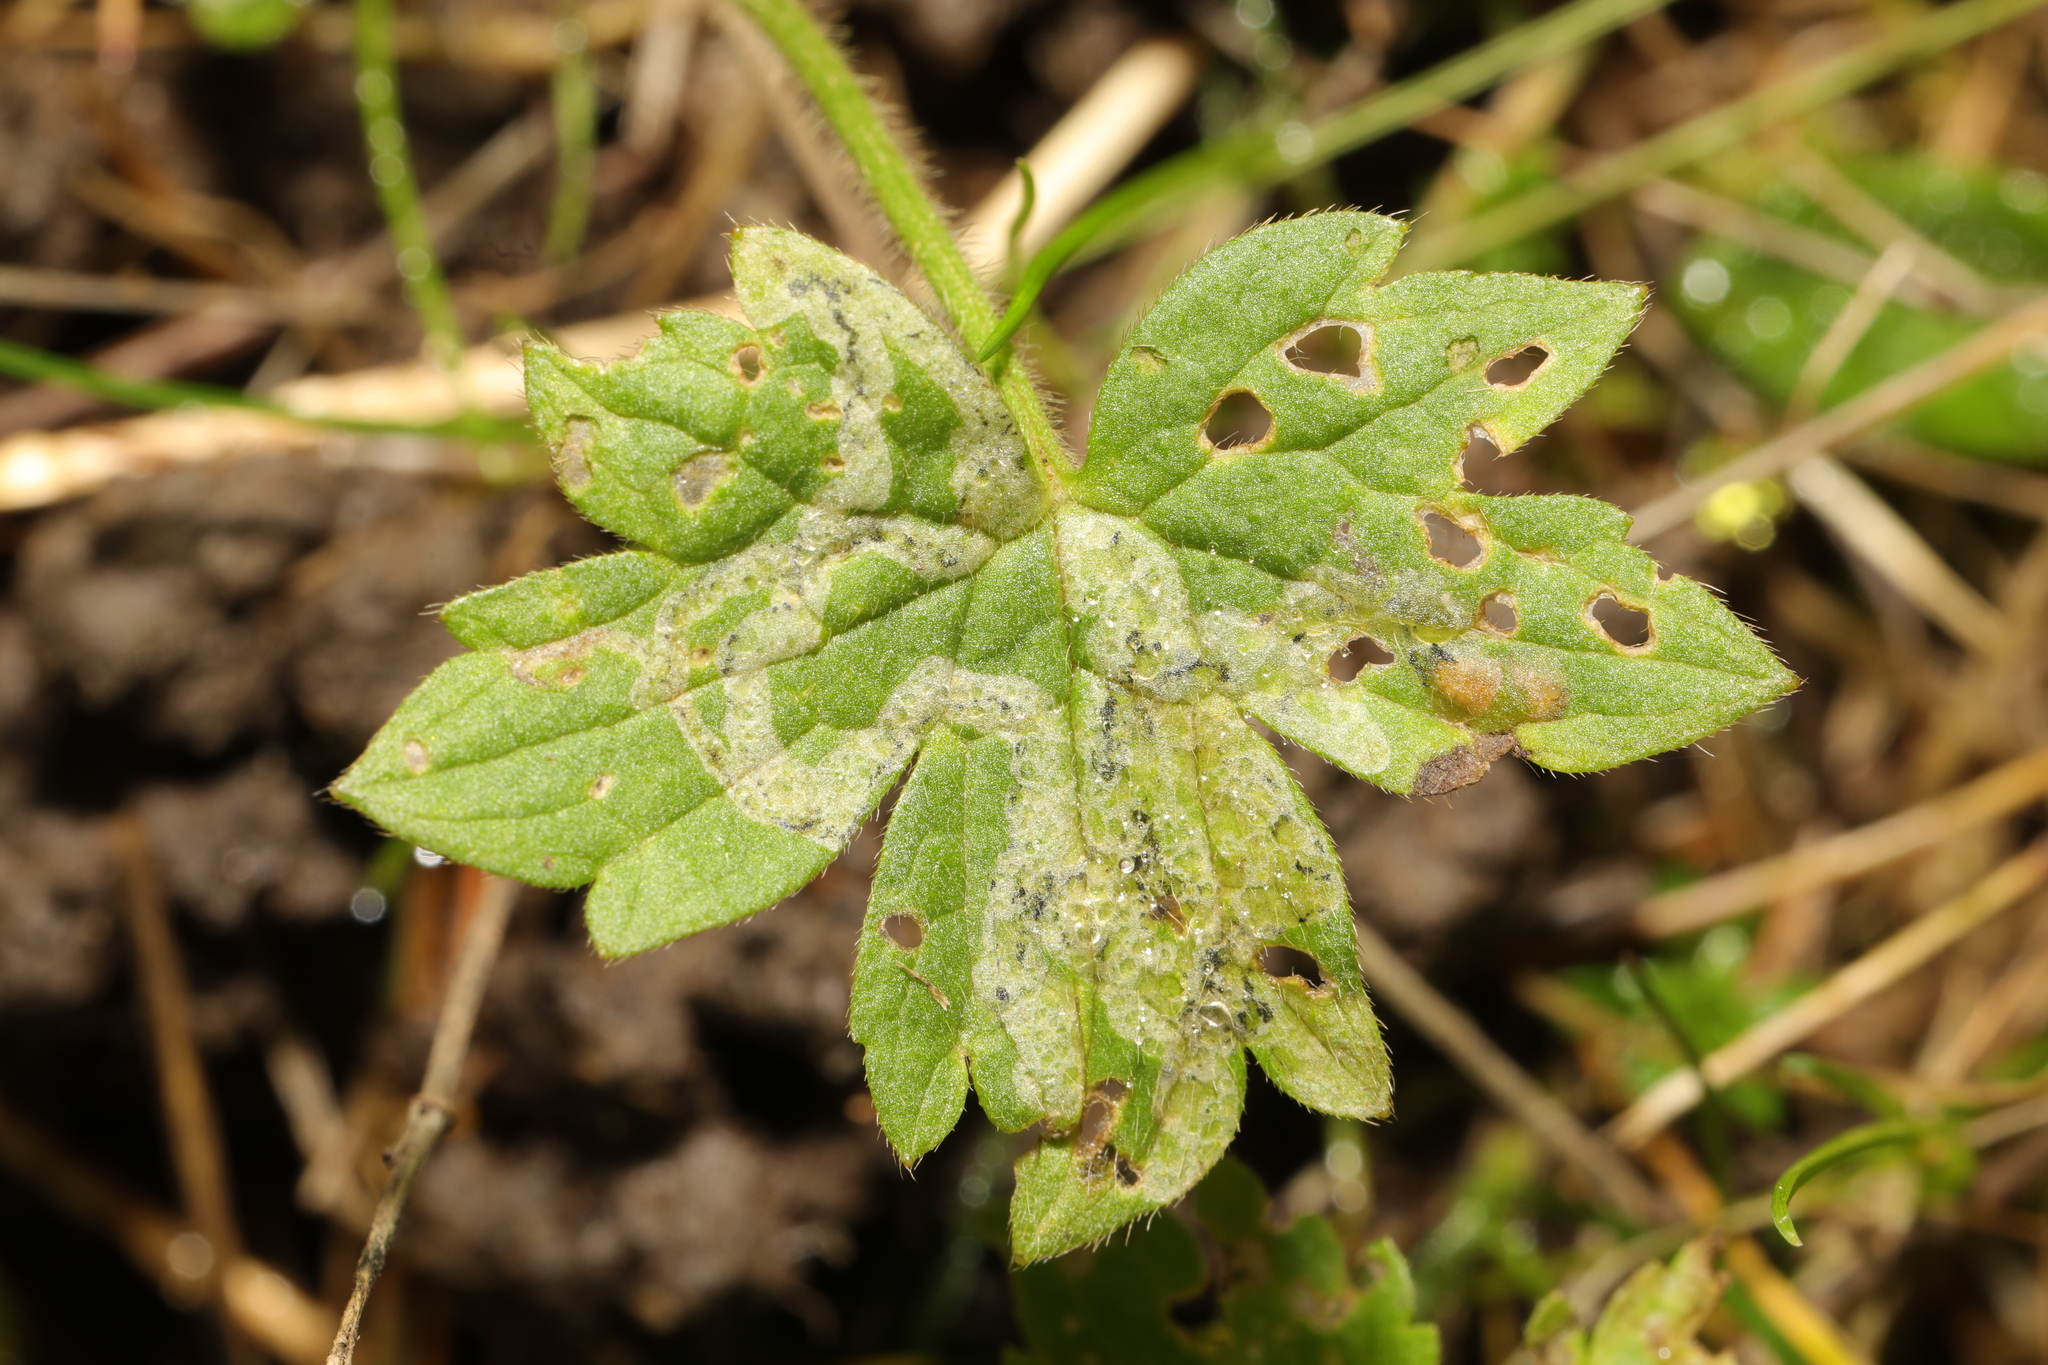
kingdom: Animalia
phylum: Arthropoda
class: Insecta
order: Diptera
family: Agromyzidae
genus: Phytomyza
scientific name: Phytomyza ranunculi
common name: Leaf-miner fly
